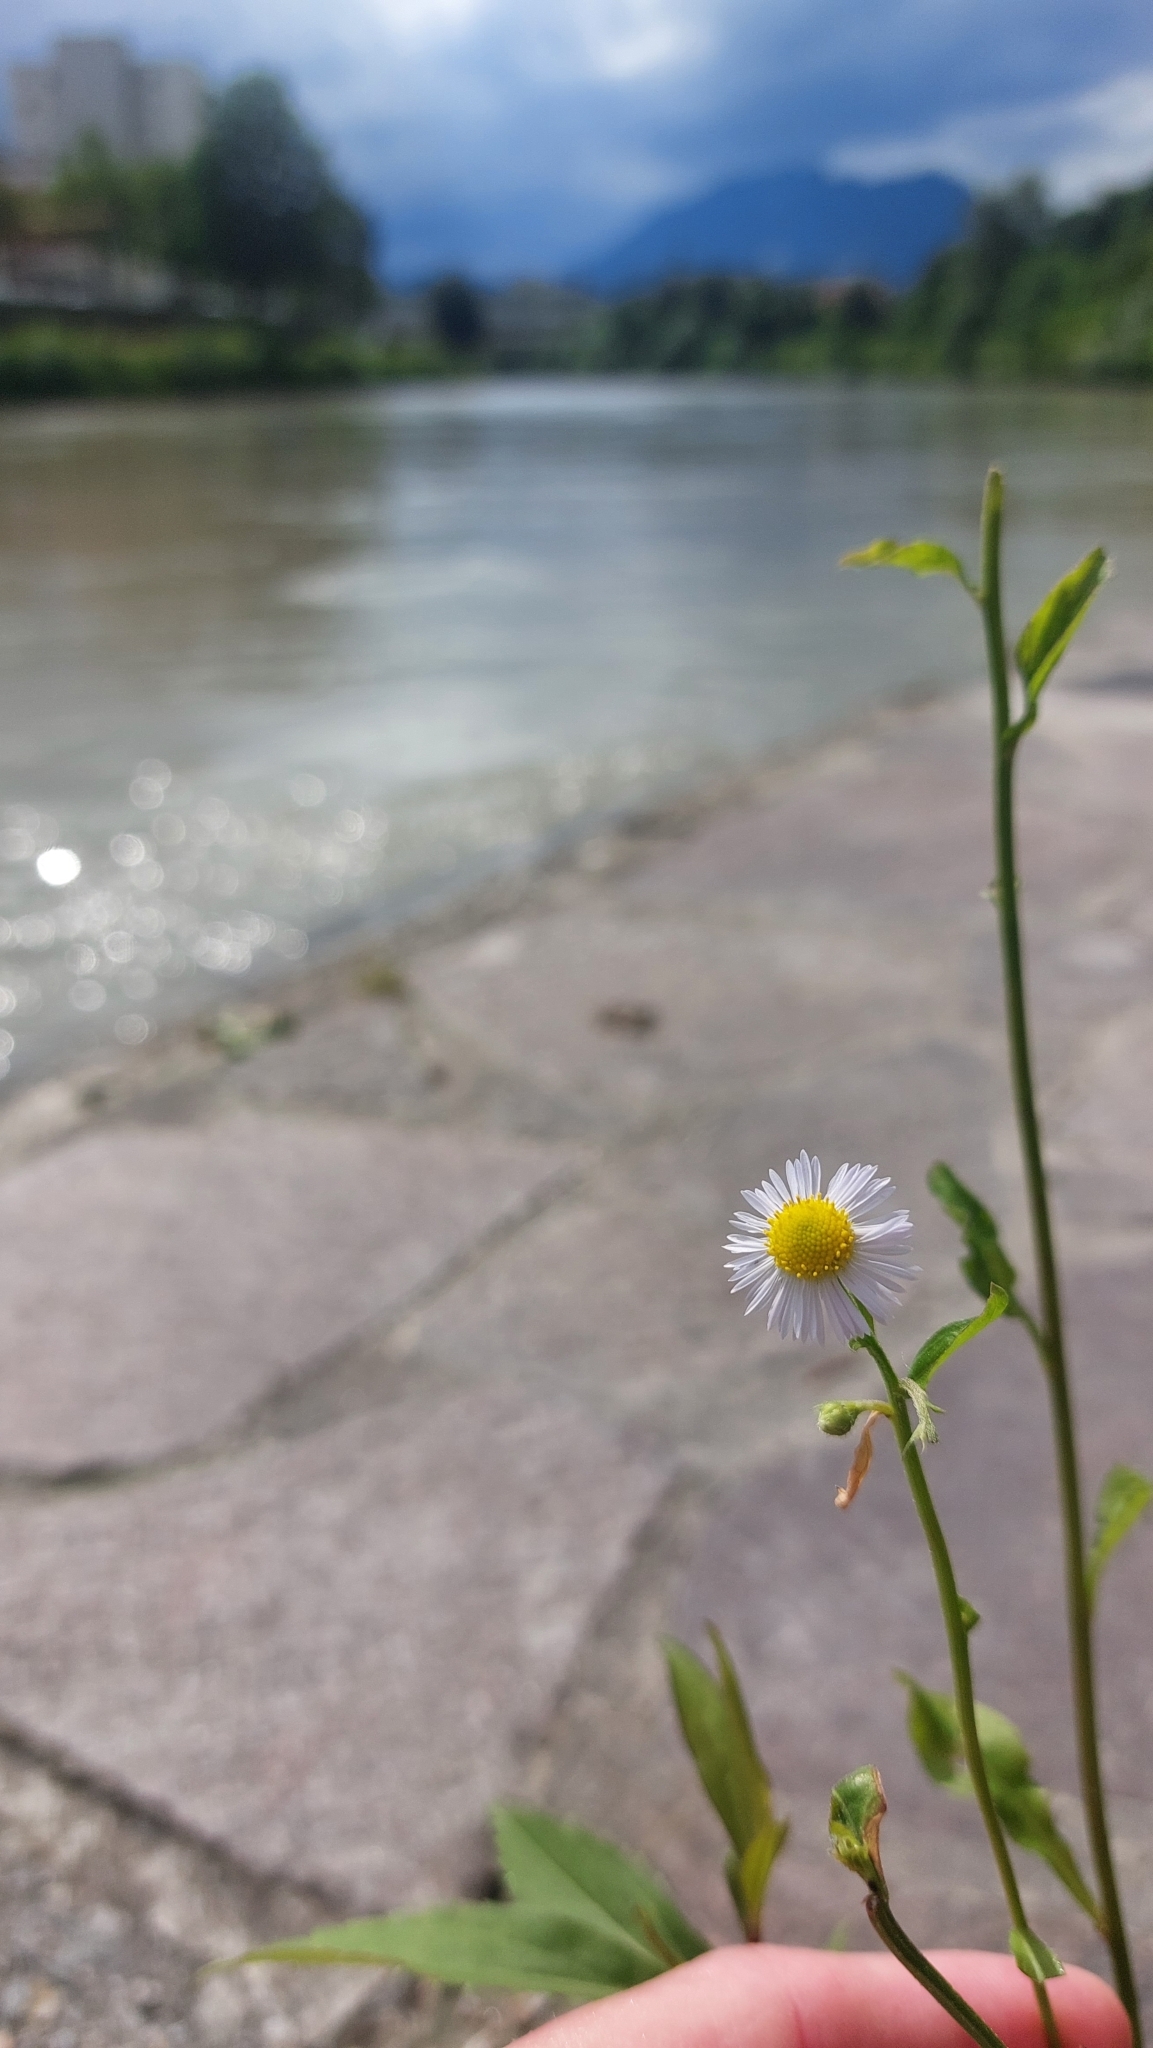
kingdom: Plantae
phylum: Tracheophyta
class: Magnoliopsida
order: Asterales
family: Asteraceae
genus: Erigeron
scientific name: Erigeron annuus
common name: Tall fleabane
